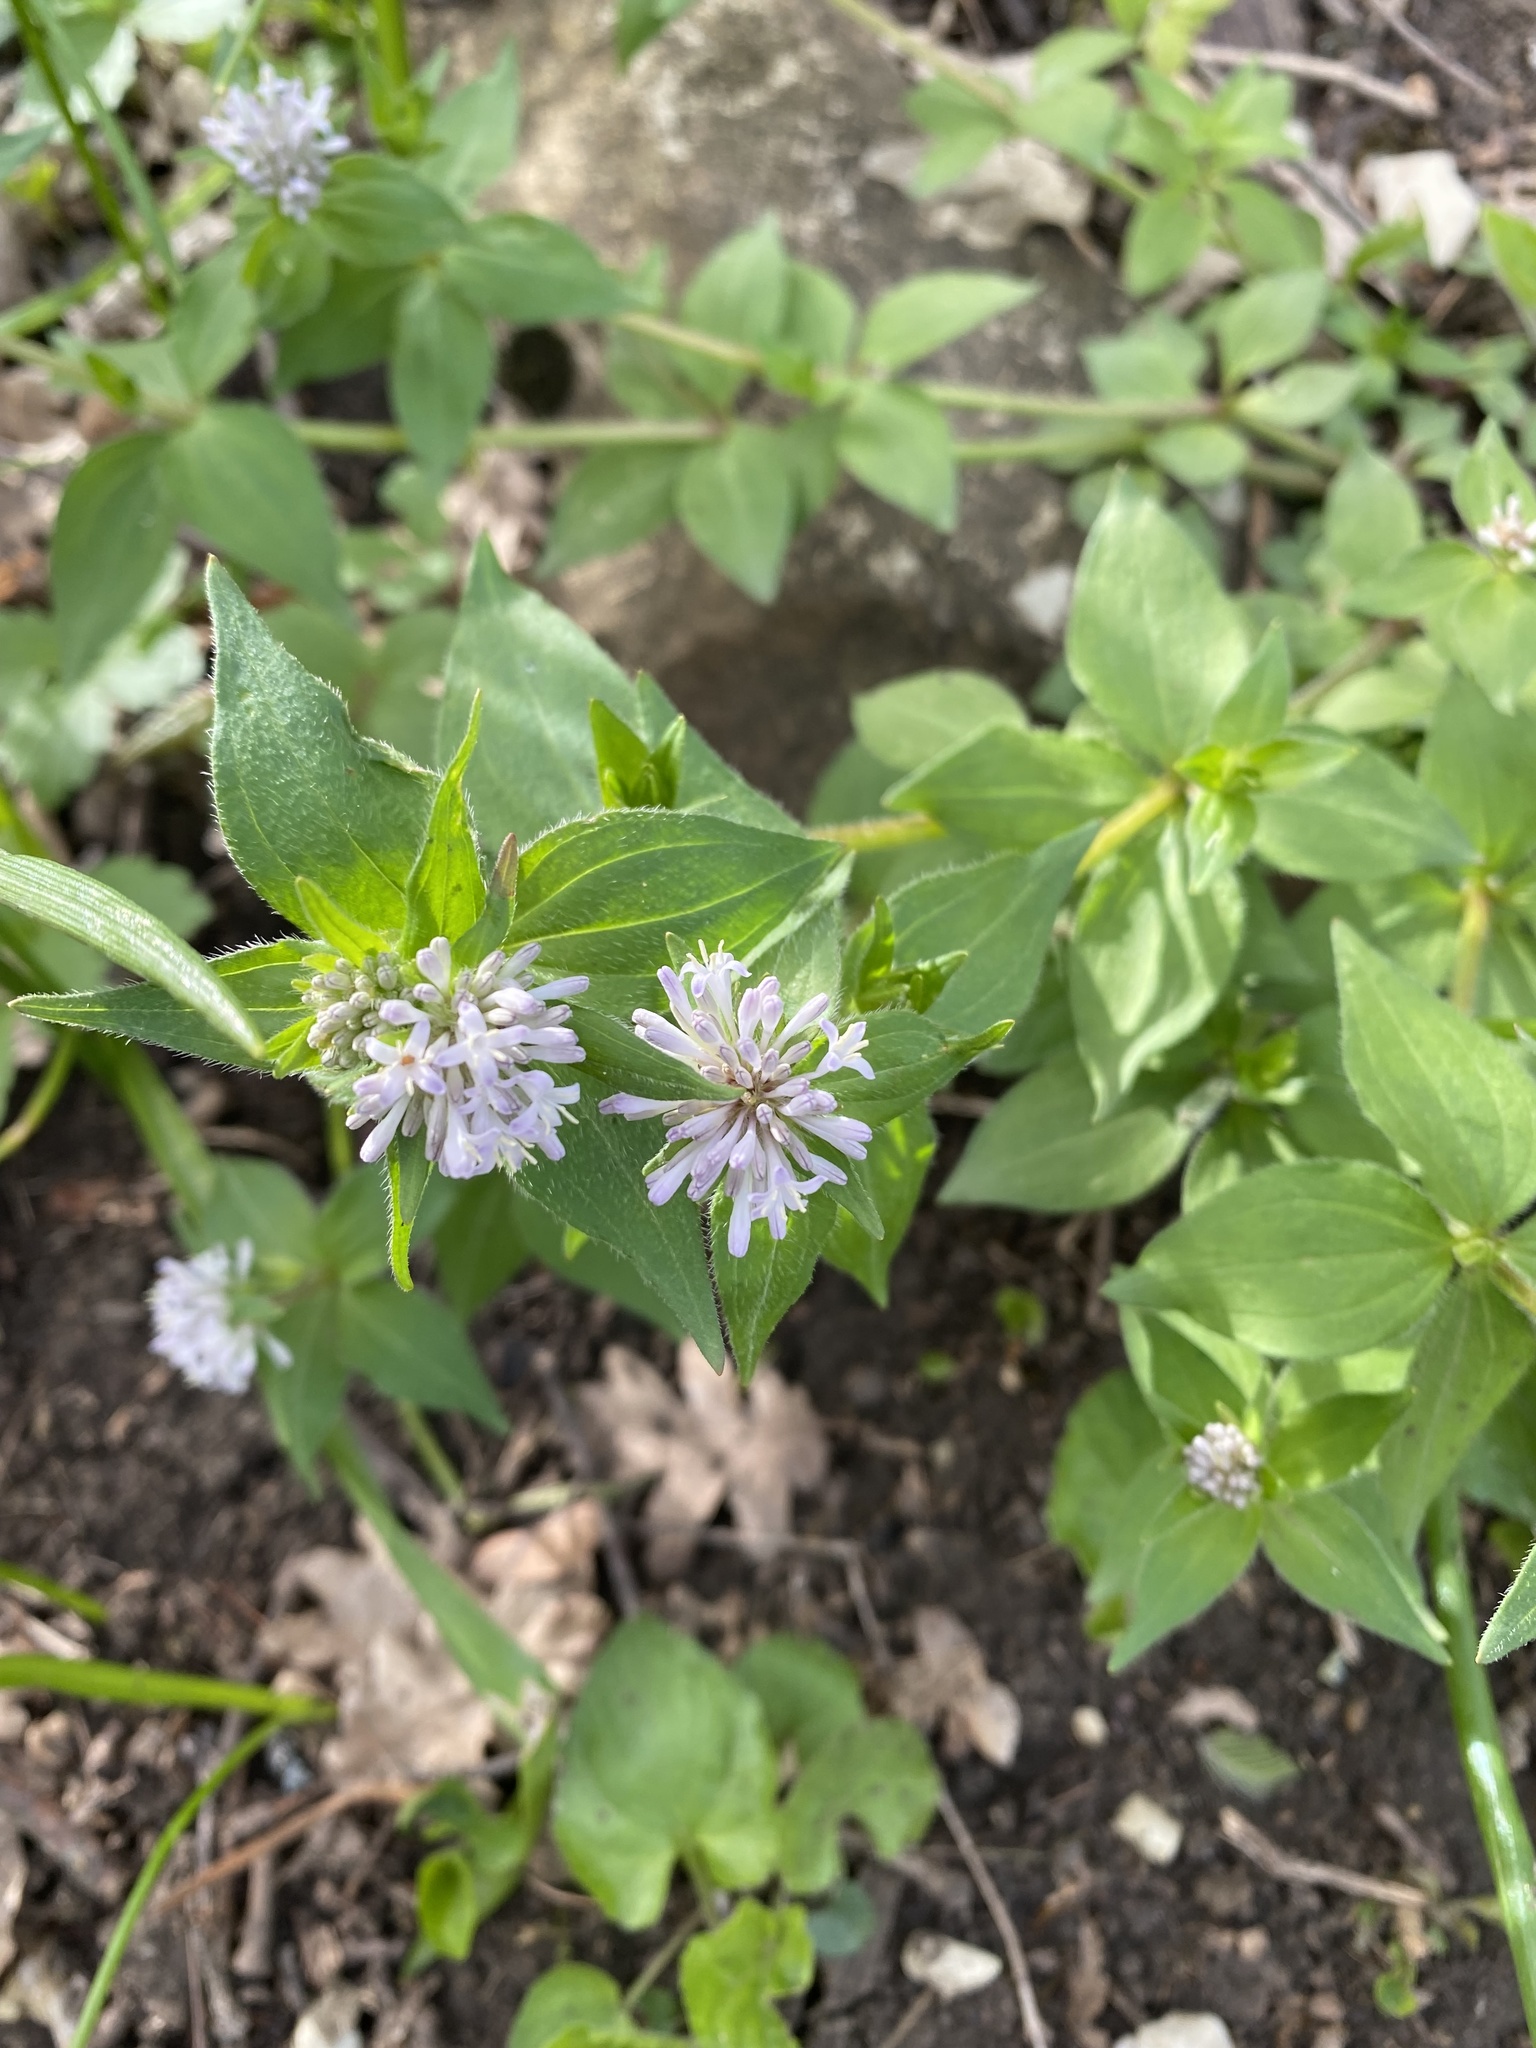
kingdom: Plantae
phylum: Tracheophyta
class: Magnoliopsida
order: Gentianales
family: Rubiaceae
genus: Asperula
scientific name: Asperula taurina
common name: Pink woodruff
